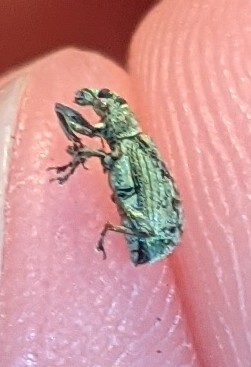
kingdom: Animalia
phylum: Arthropoda
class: Insecta
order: Coleoptera
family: Curculionidae
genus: Polydrusus
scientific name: Polydrusus cervinus
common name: Weevil
